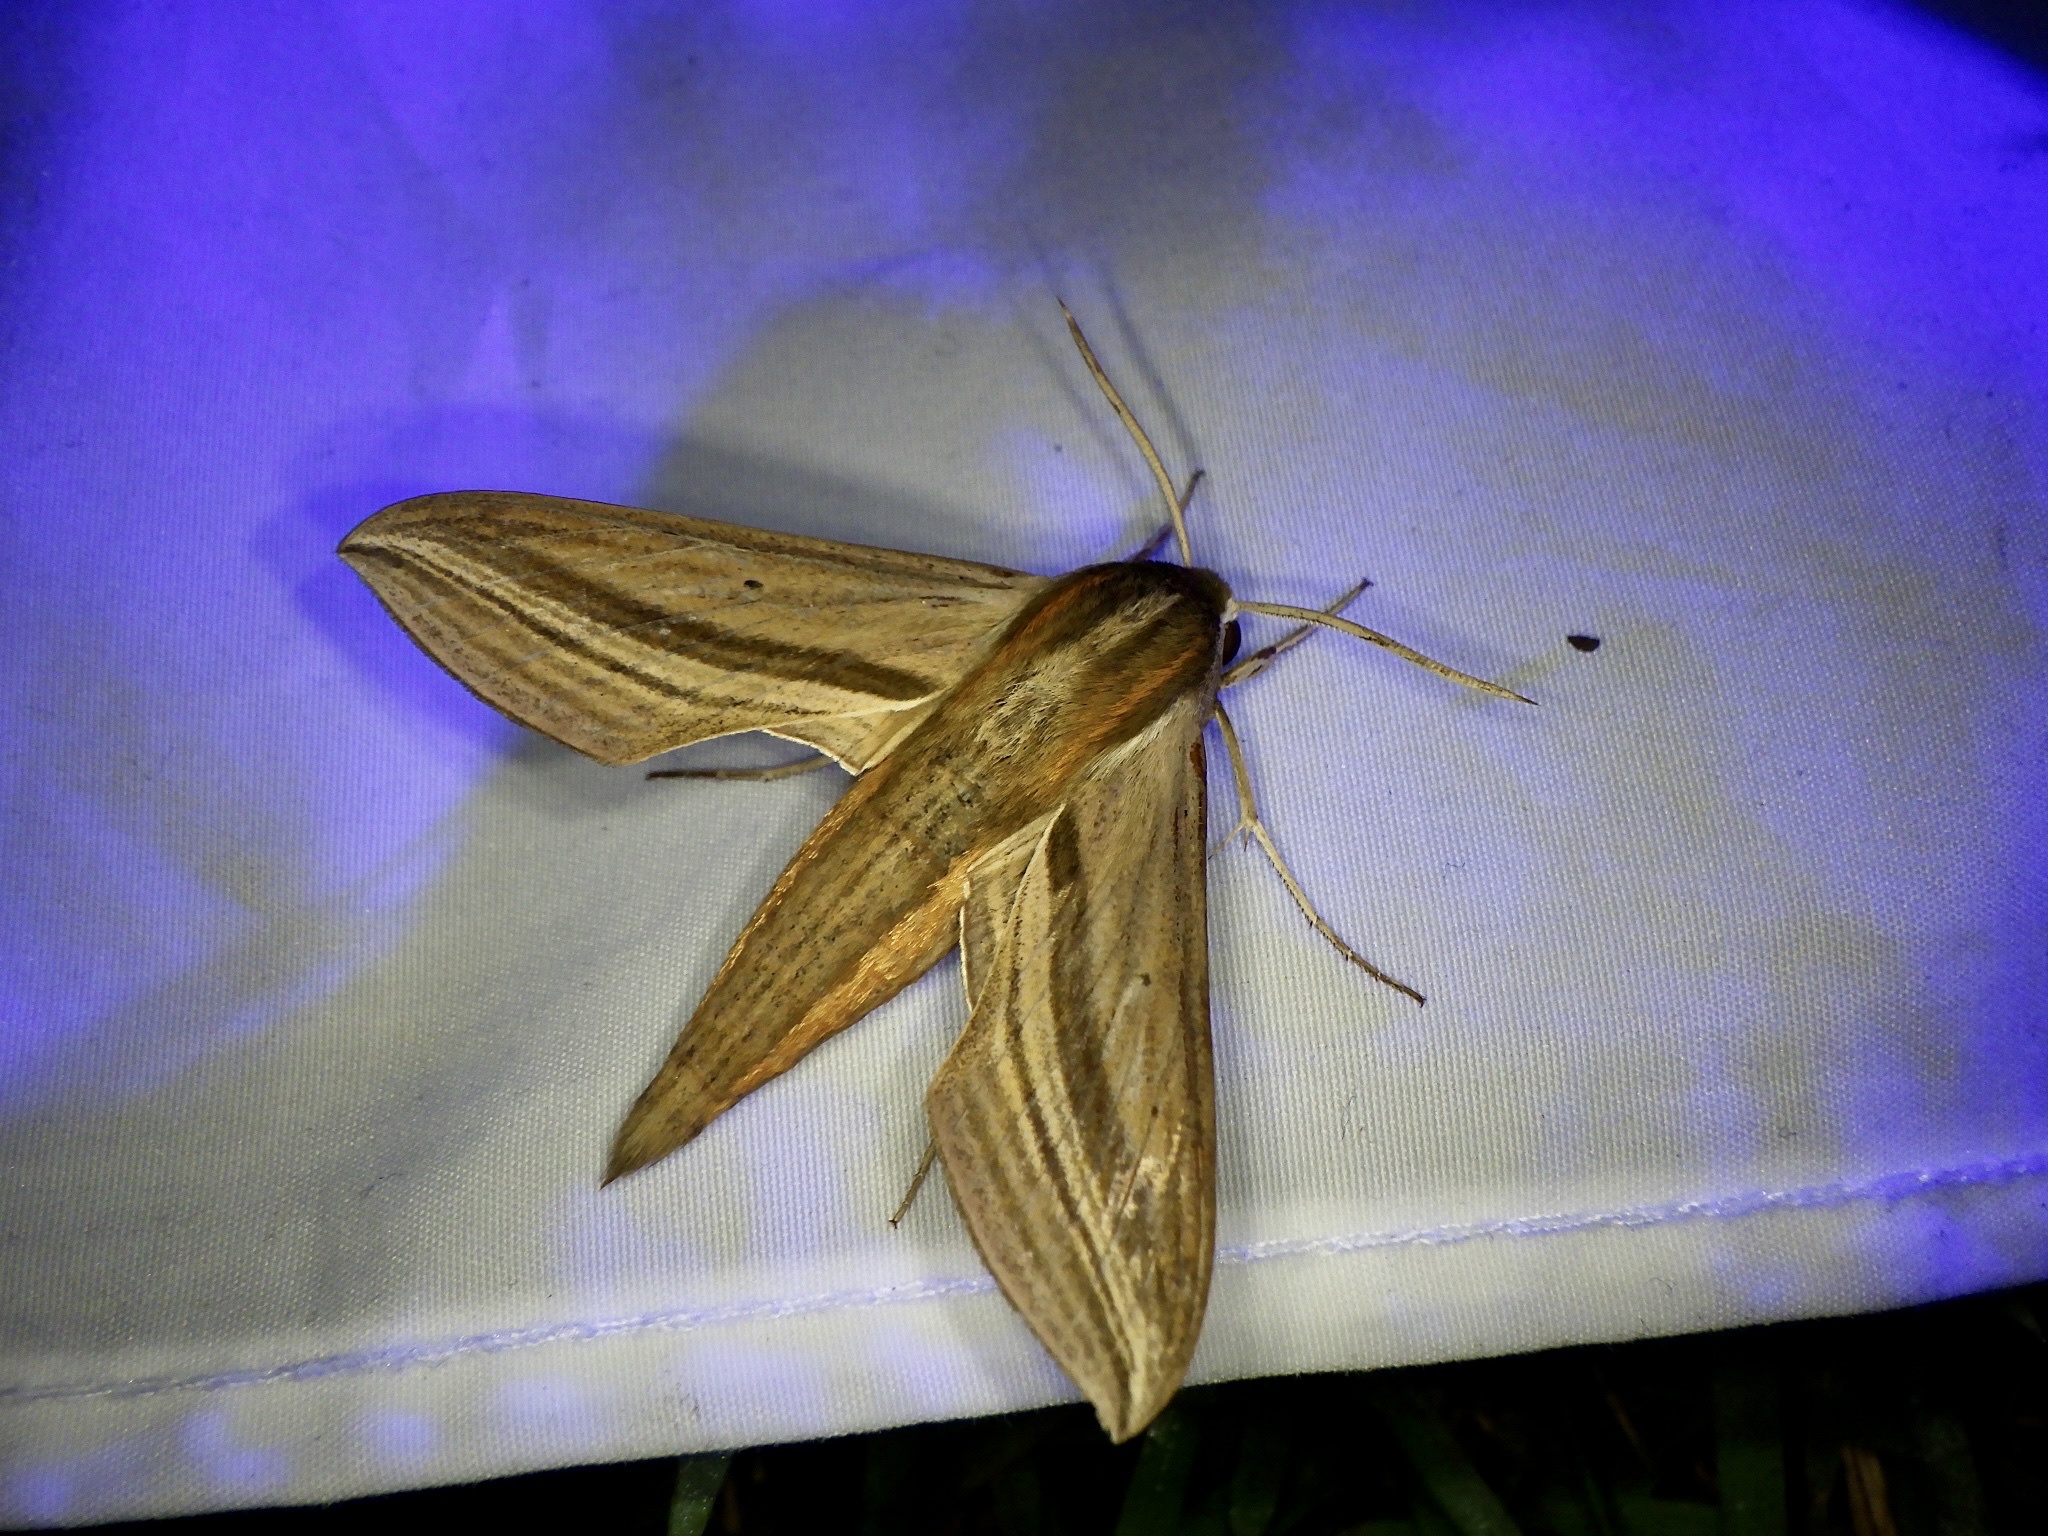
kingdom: Animalia
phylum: Arthropoda
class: Insecta
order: Lepidoptera
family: Sphingidae
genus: Theretra
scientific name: Theretra japonica
